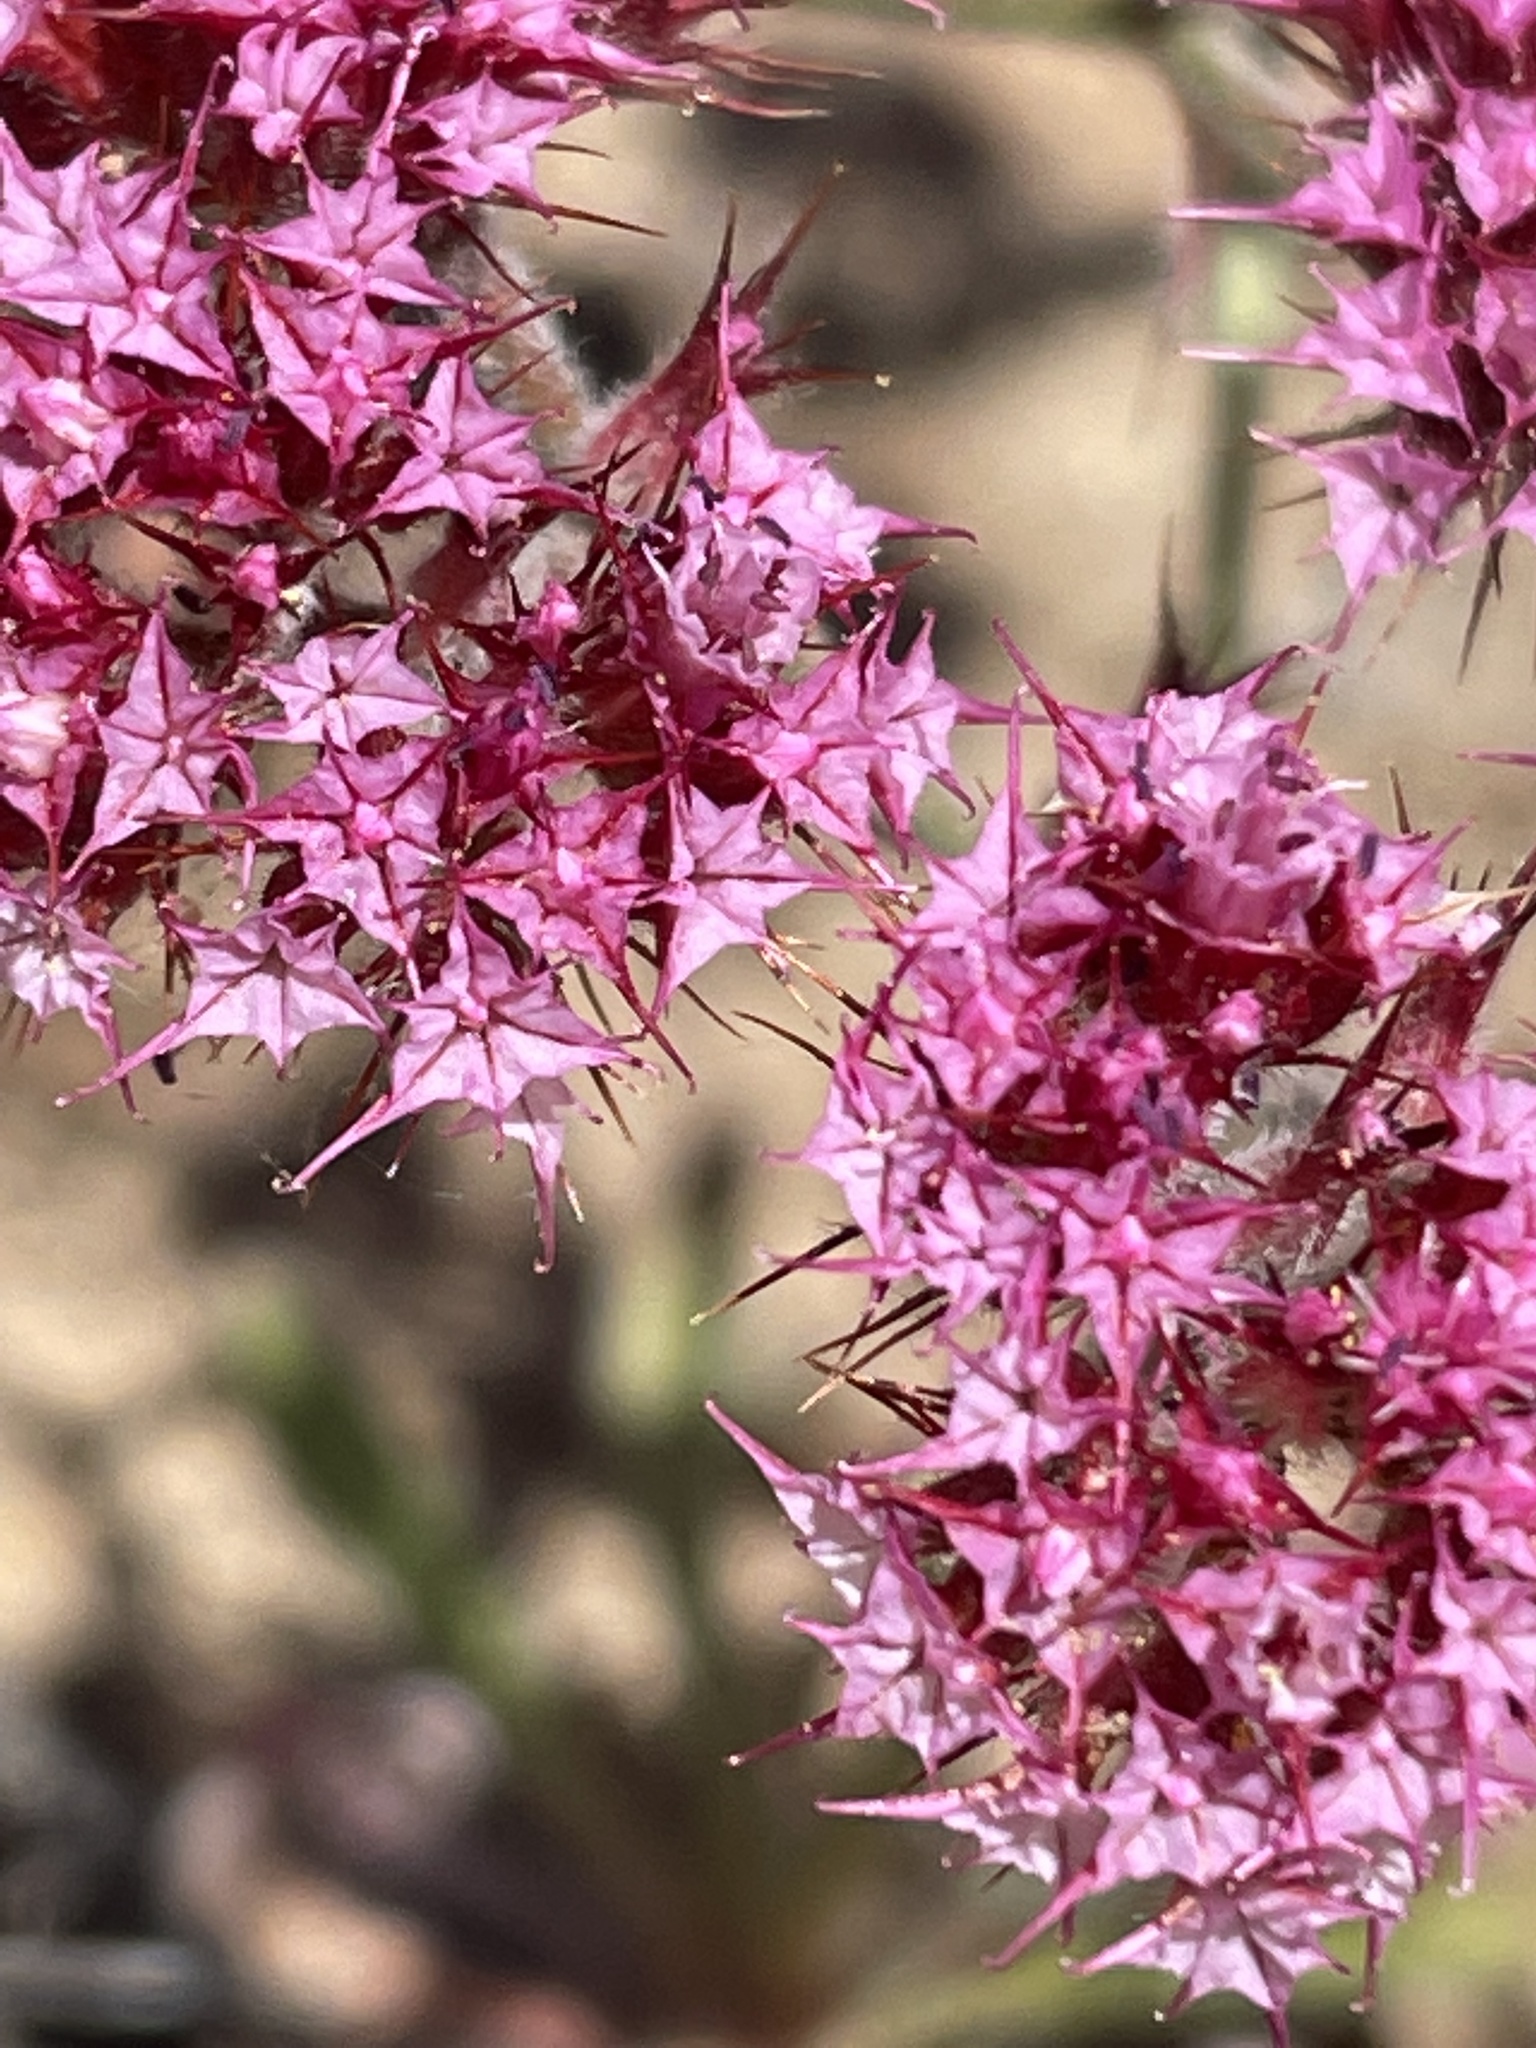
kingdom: Plantae
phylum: Tracheophyta
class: Magnoliopsida
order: Caryophyllales
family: Polygonaceae
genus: Chorizanthe
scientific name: Chorizanthe douglasii
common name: Douglas's spineflower
